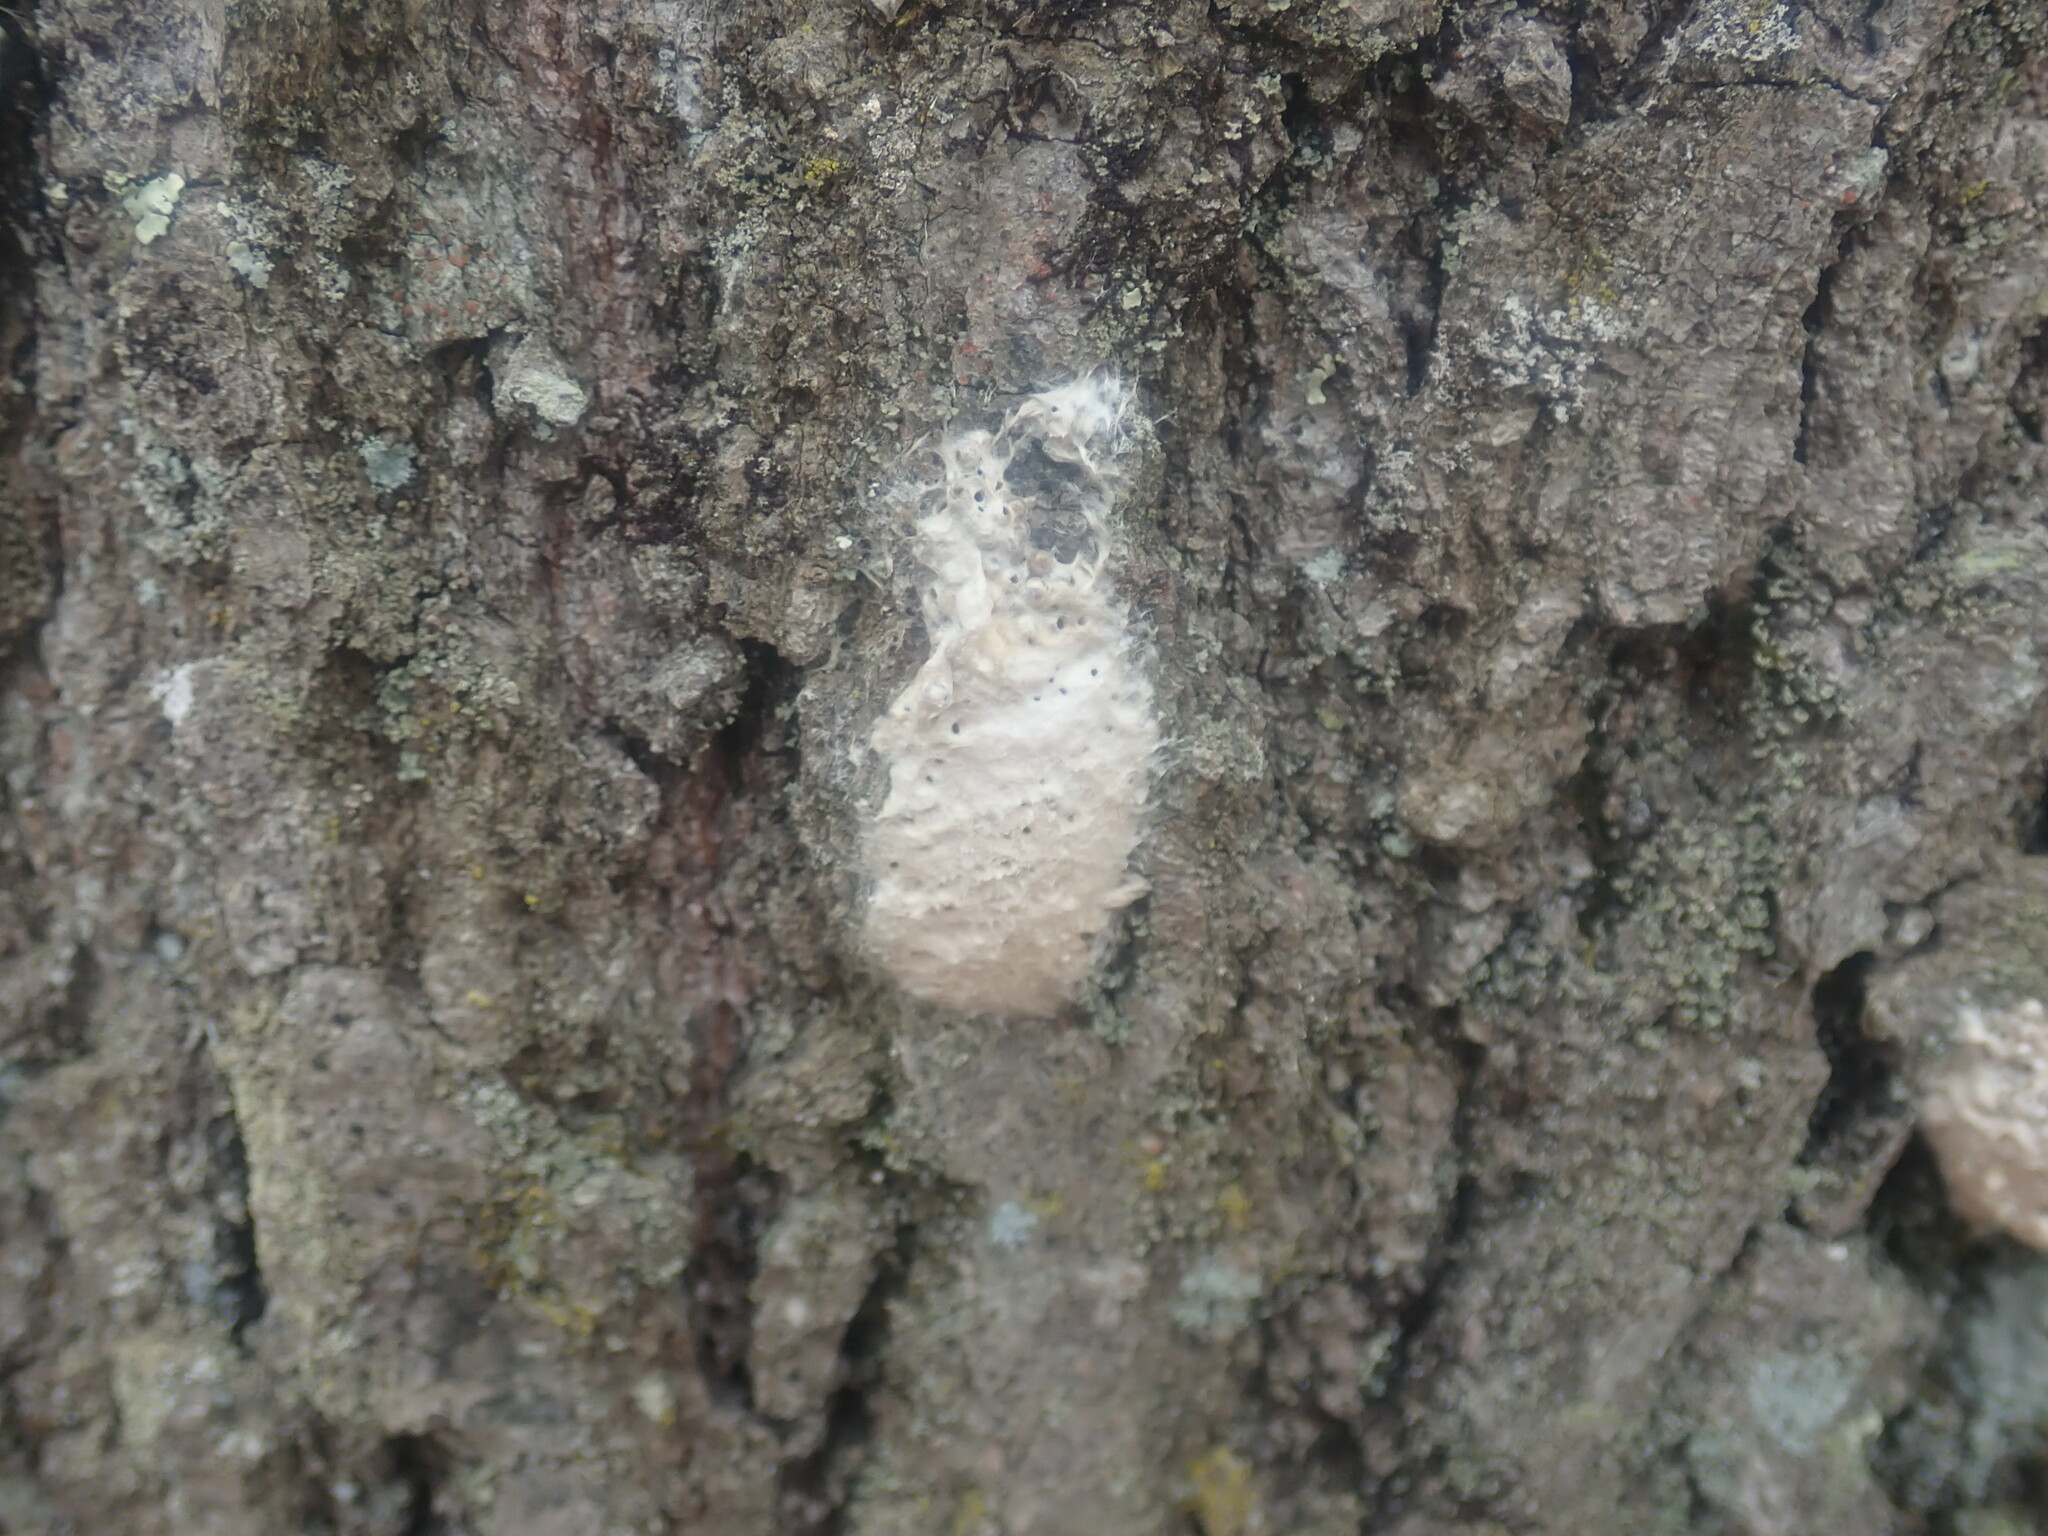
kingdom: Animalia
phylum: Arthropoda
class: Insecta
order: Lepidoptera
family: Erebidae
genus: Lymantria
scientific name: Lymantria dispar
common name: Gypsy moth
